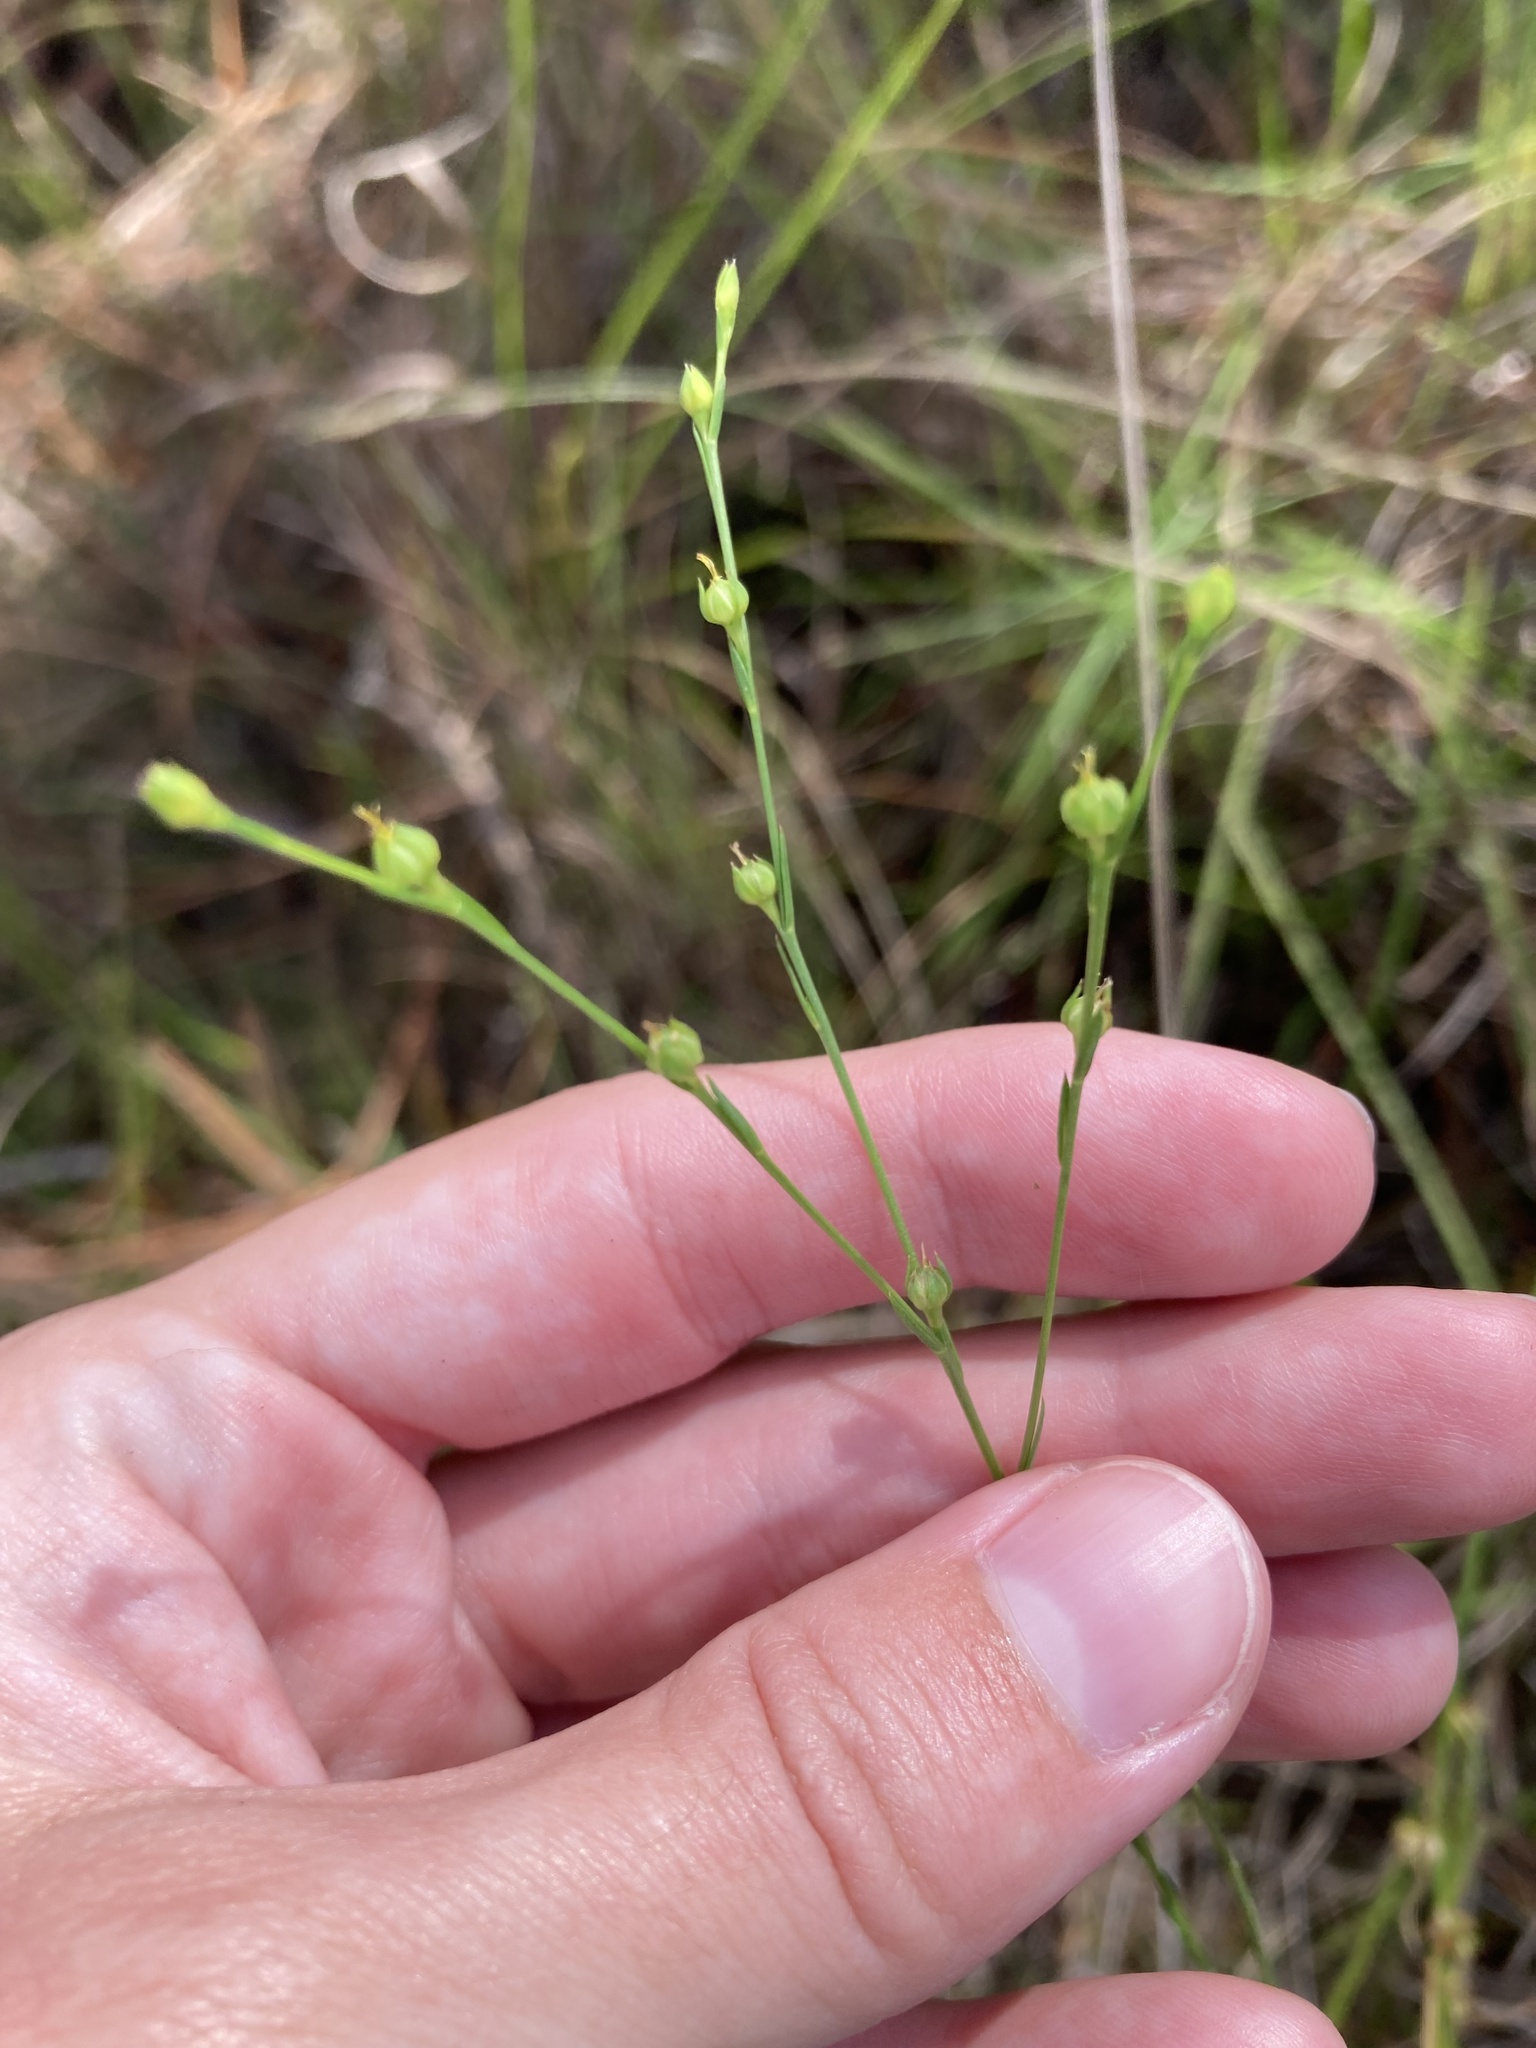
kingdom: Plantae
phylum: Tracheophyta
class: Magnoliopsida
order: Malpighiales
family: Linaceae
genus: Linum
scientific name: Linum medium
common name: Stiff yellow flax
